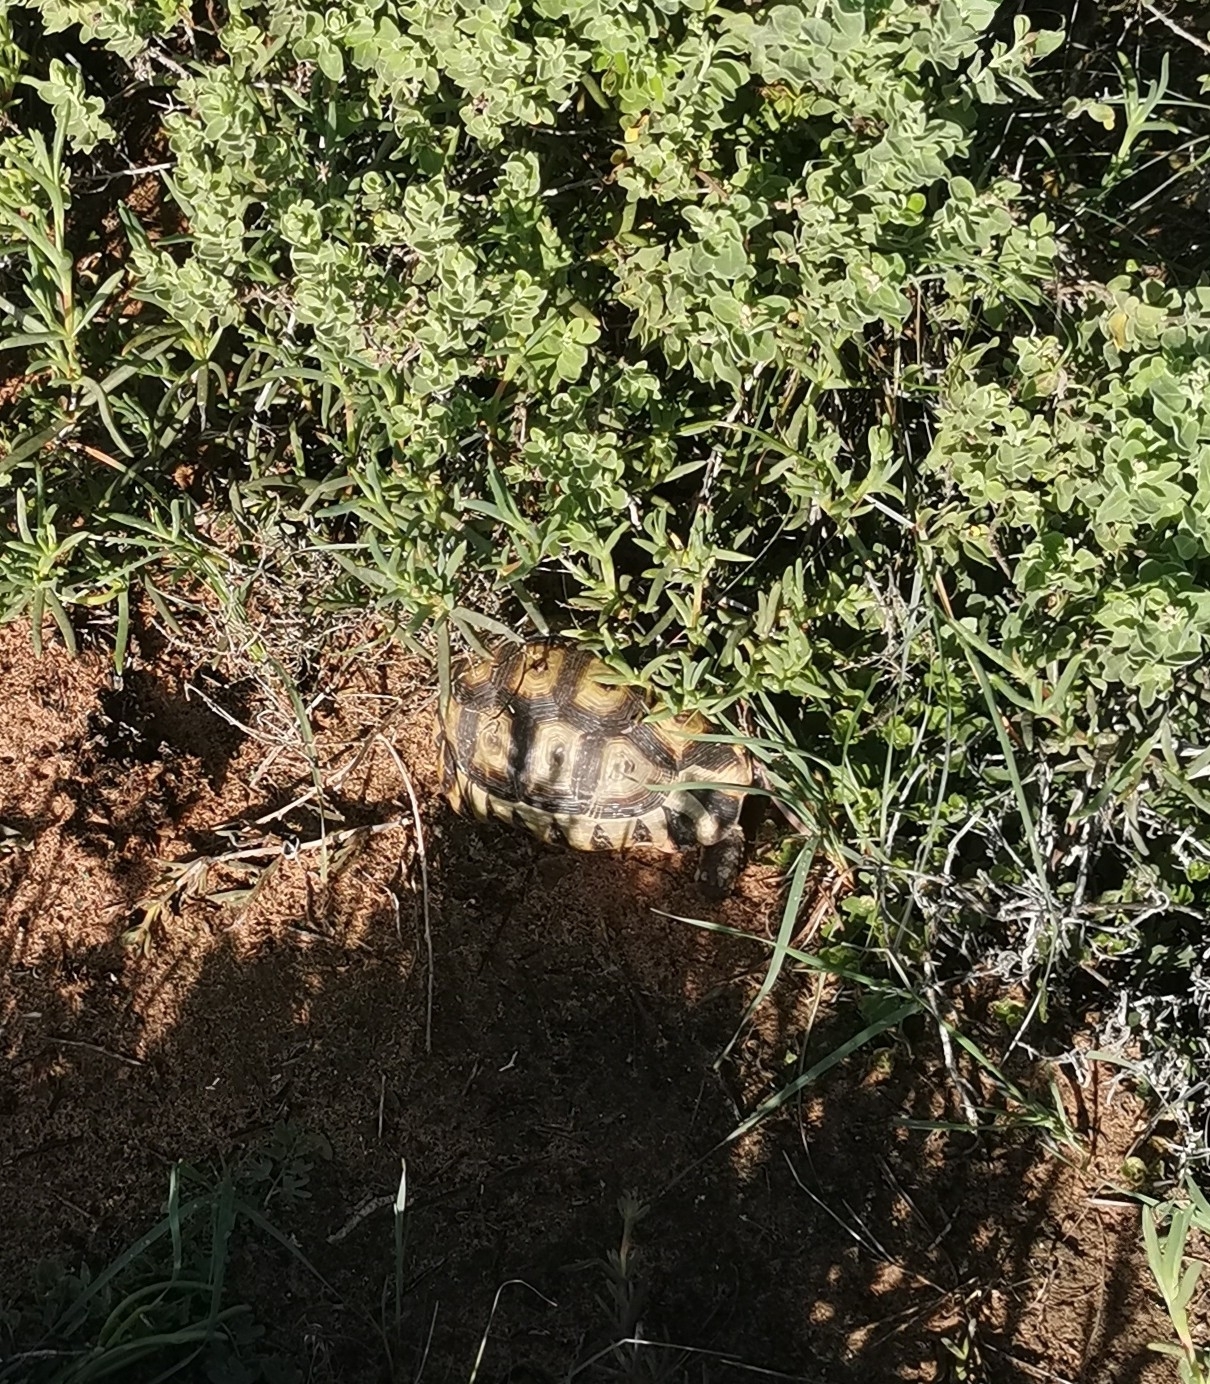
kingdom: Animalia
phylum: Chordata
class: Testudines
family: Testudinidae
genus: Chersina
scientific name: Chersina angulata
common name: South african bowsprit tortoise
